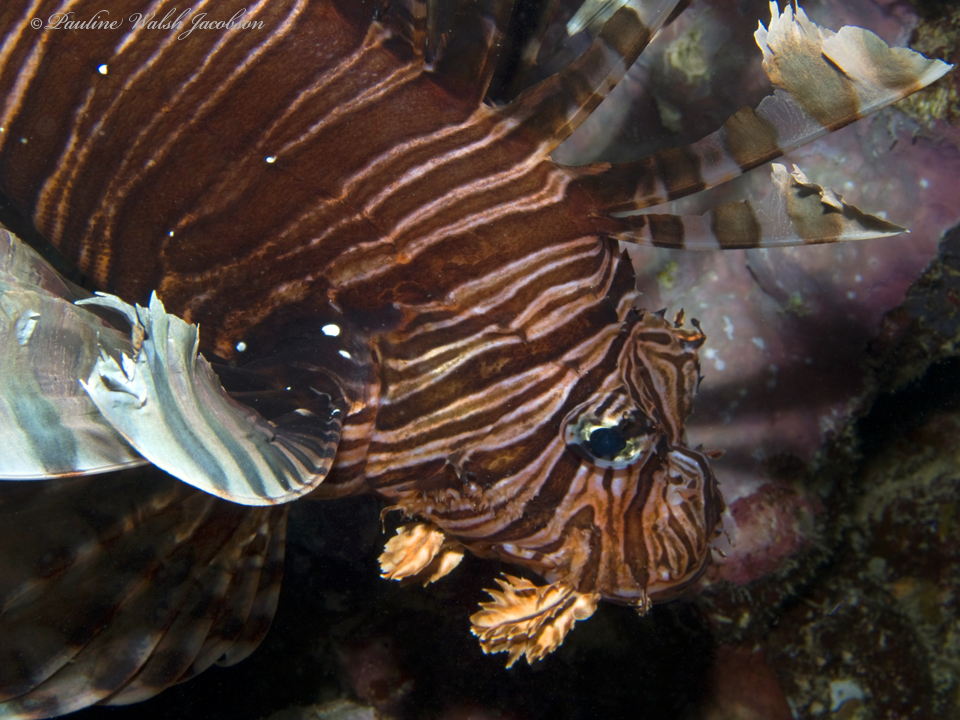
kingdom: Animalia
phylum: Chordata
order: Scorpaeniformes
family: Scorpaenidae
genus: Pterois
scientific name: Pterois volitans
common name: Lionfish
